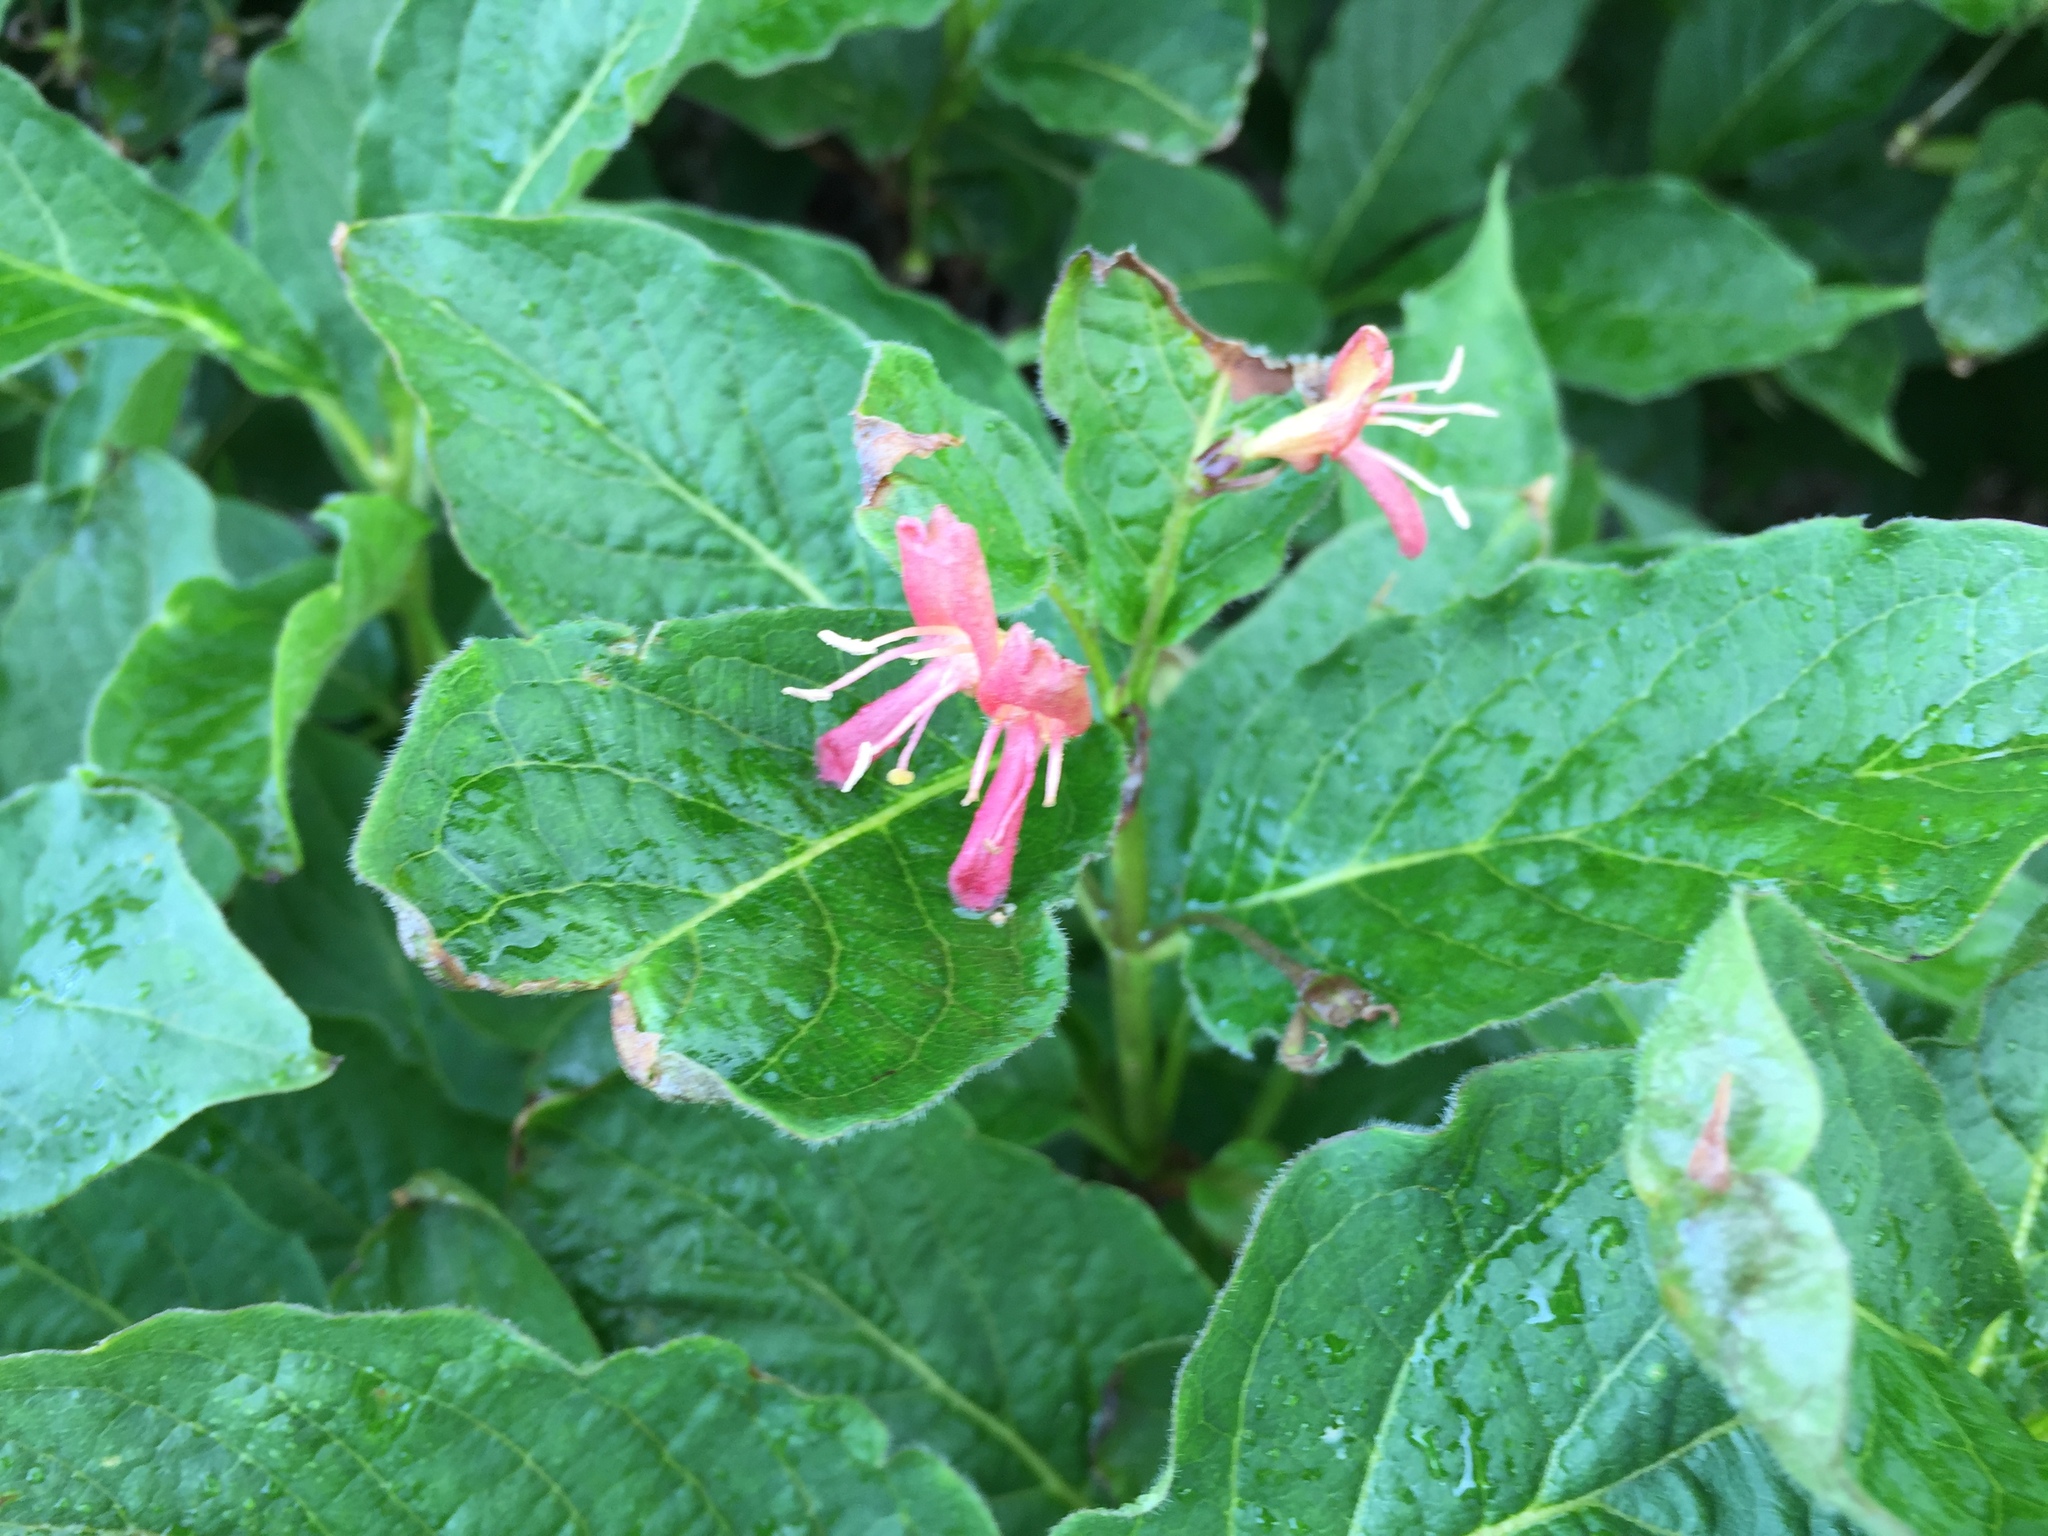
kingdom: Plantae
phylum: Tracheophyta
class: Magnoliopsida
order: Dipsacales
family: Caprifoliaceae
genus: Lonicera
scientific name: Lonicera alpigena
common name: Alpine honeysuckle
